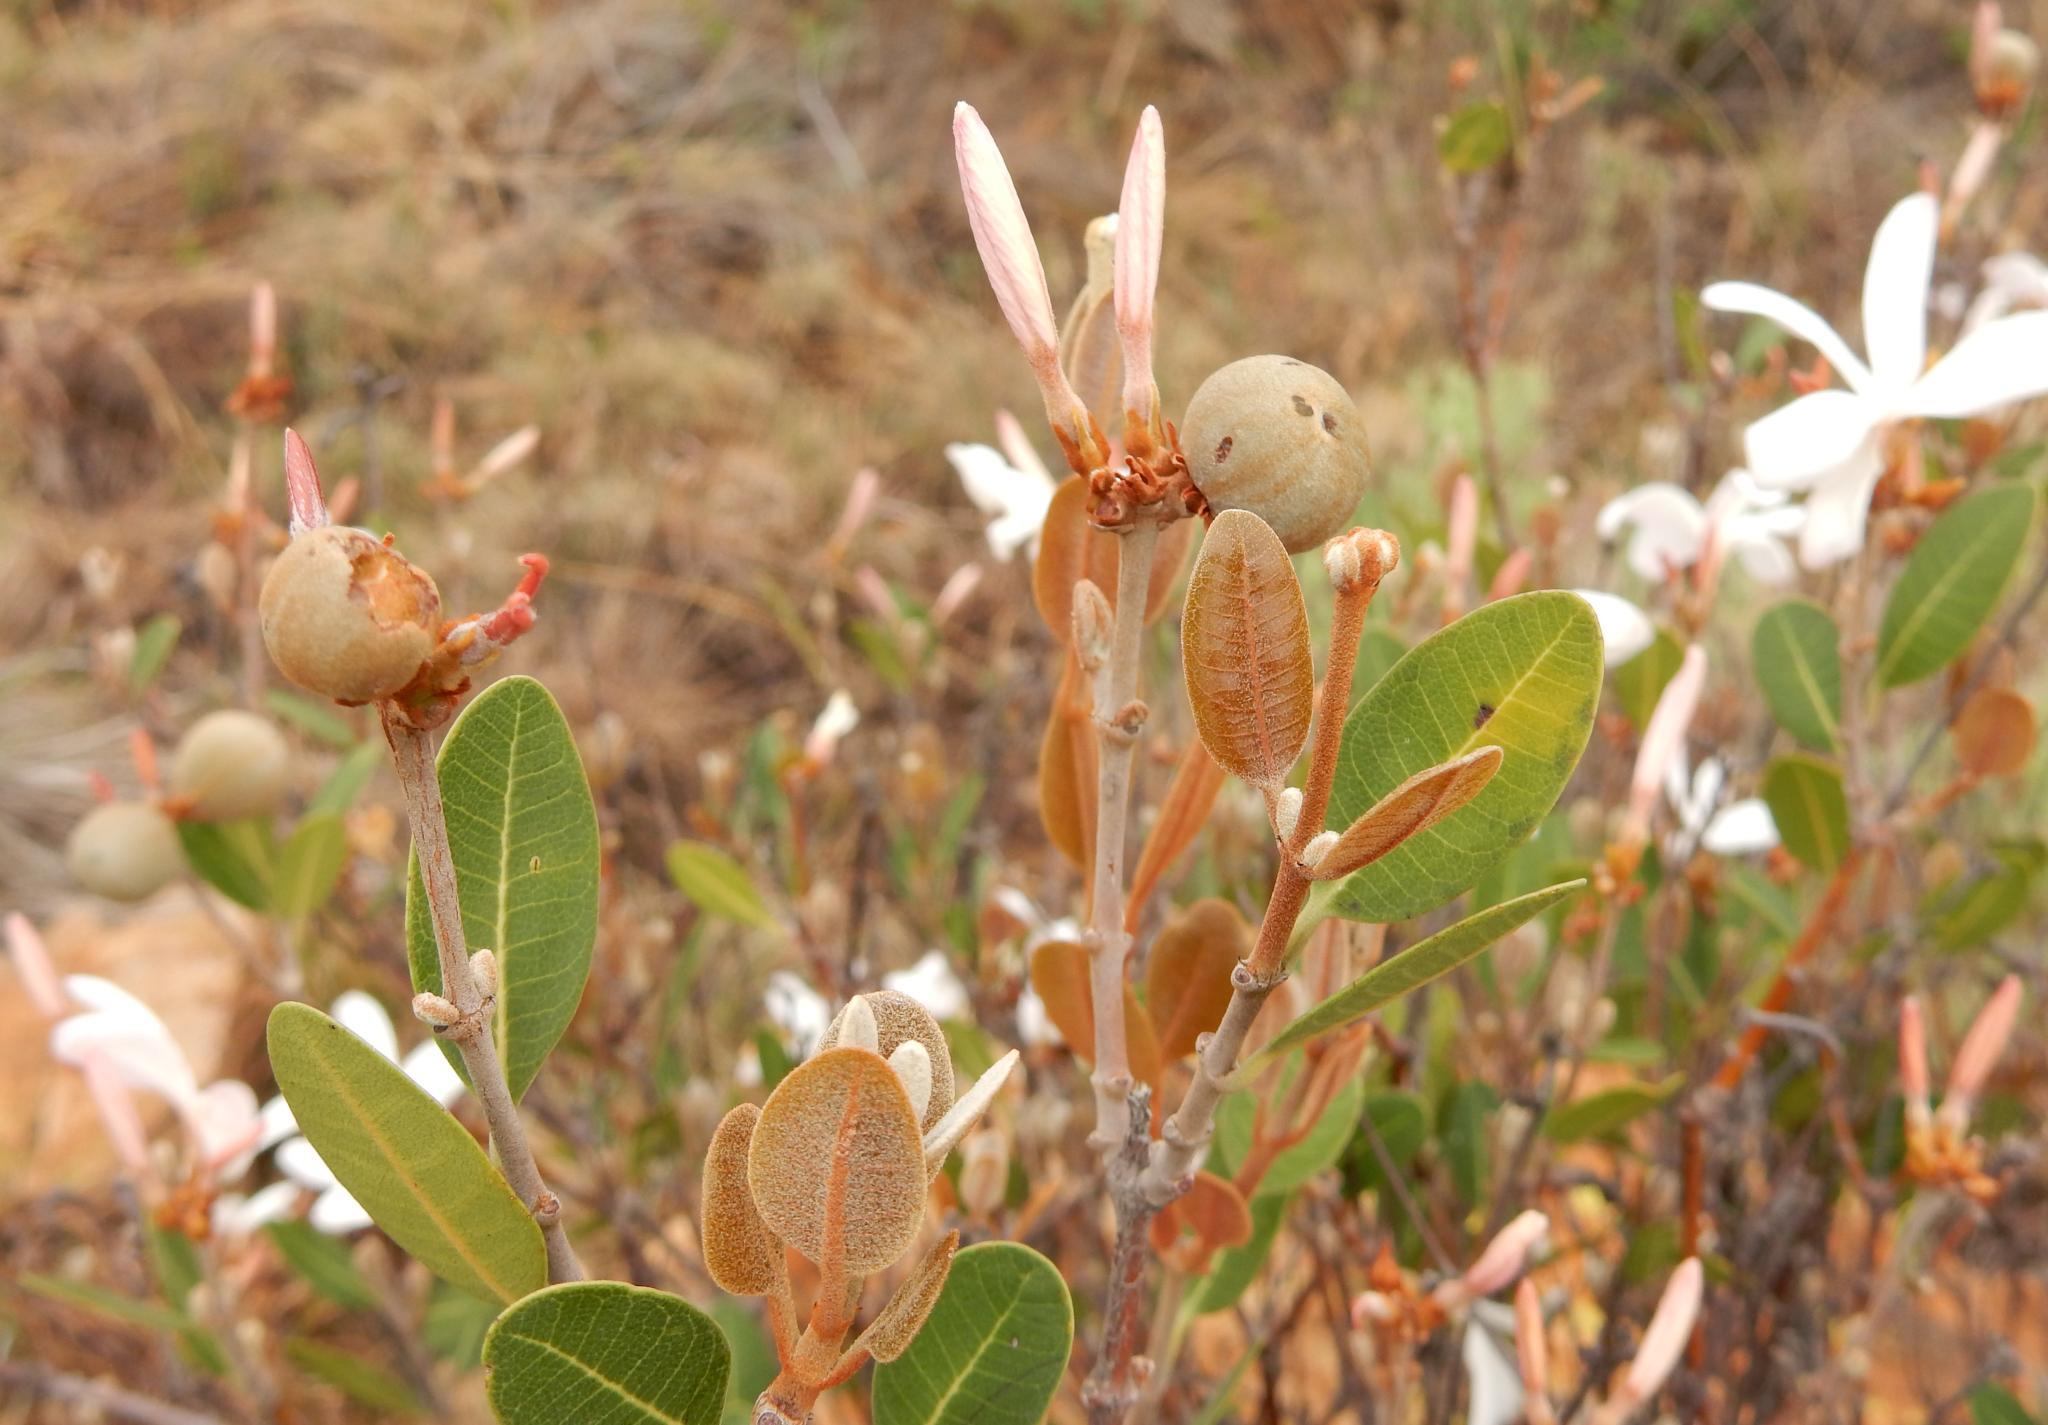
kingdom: Plantae
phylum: Tracheophyta
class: Magnoliopsida
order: Gentianales
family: Apocynaceae
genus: Ancylobothrys
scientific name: Ancylobothrys capensis
